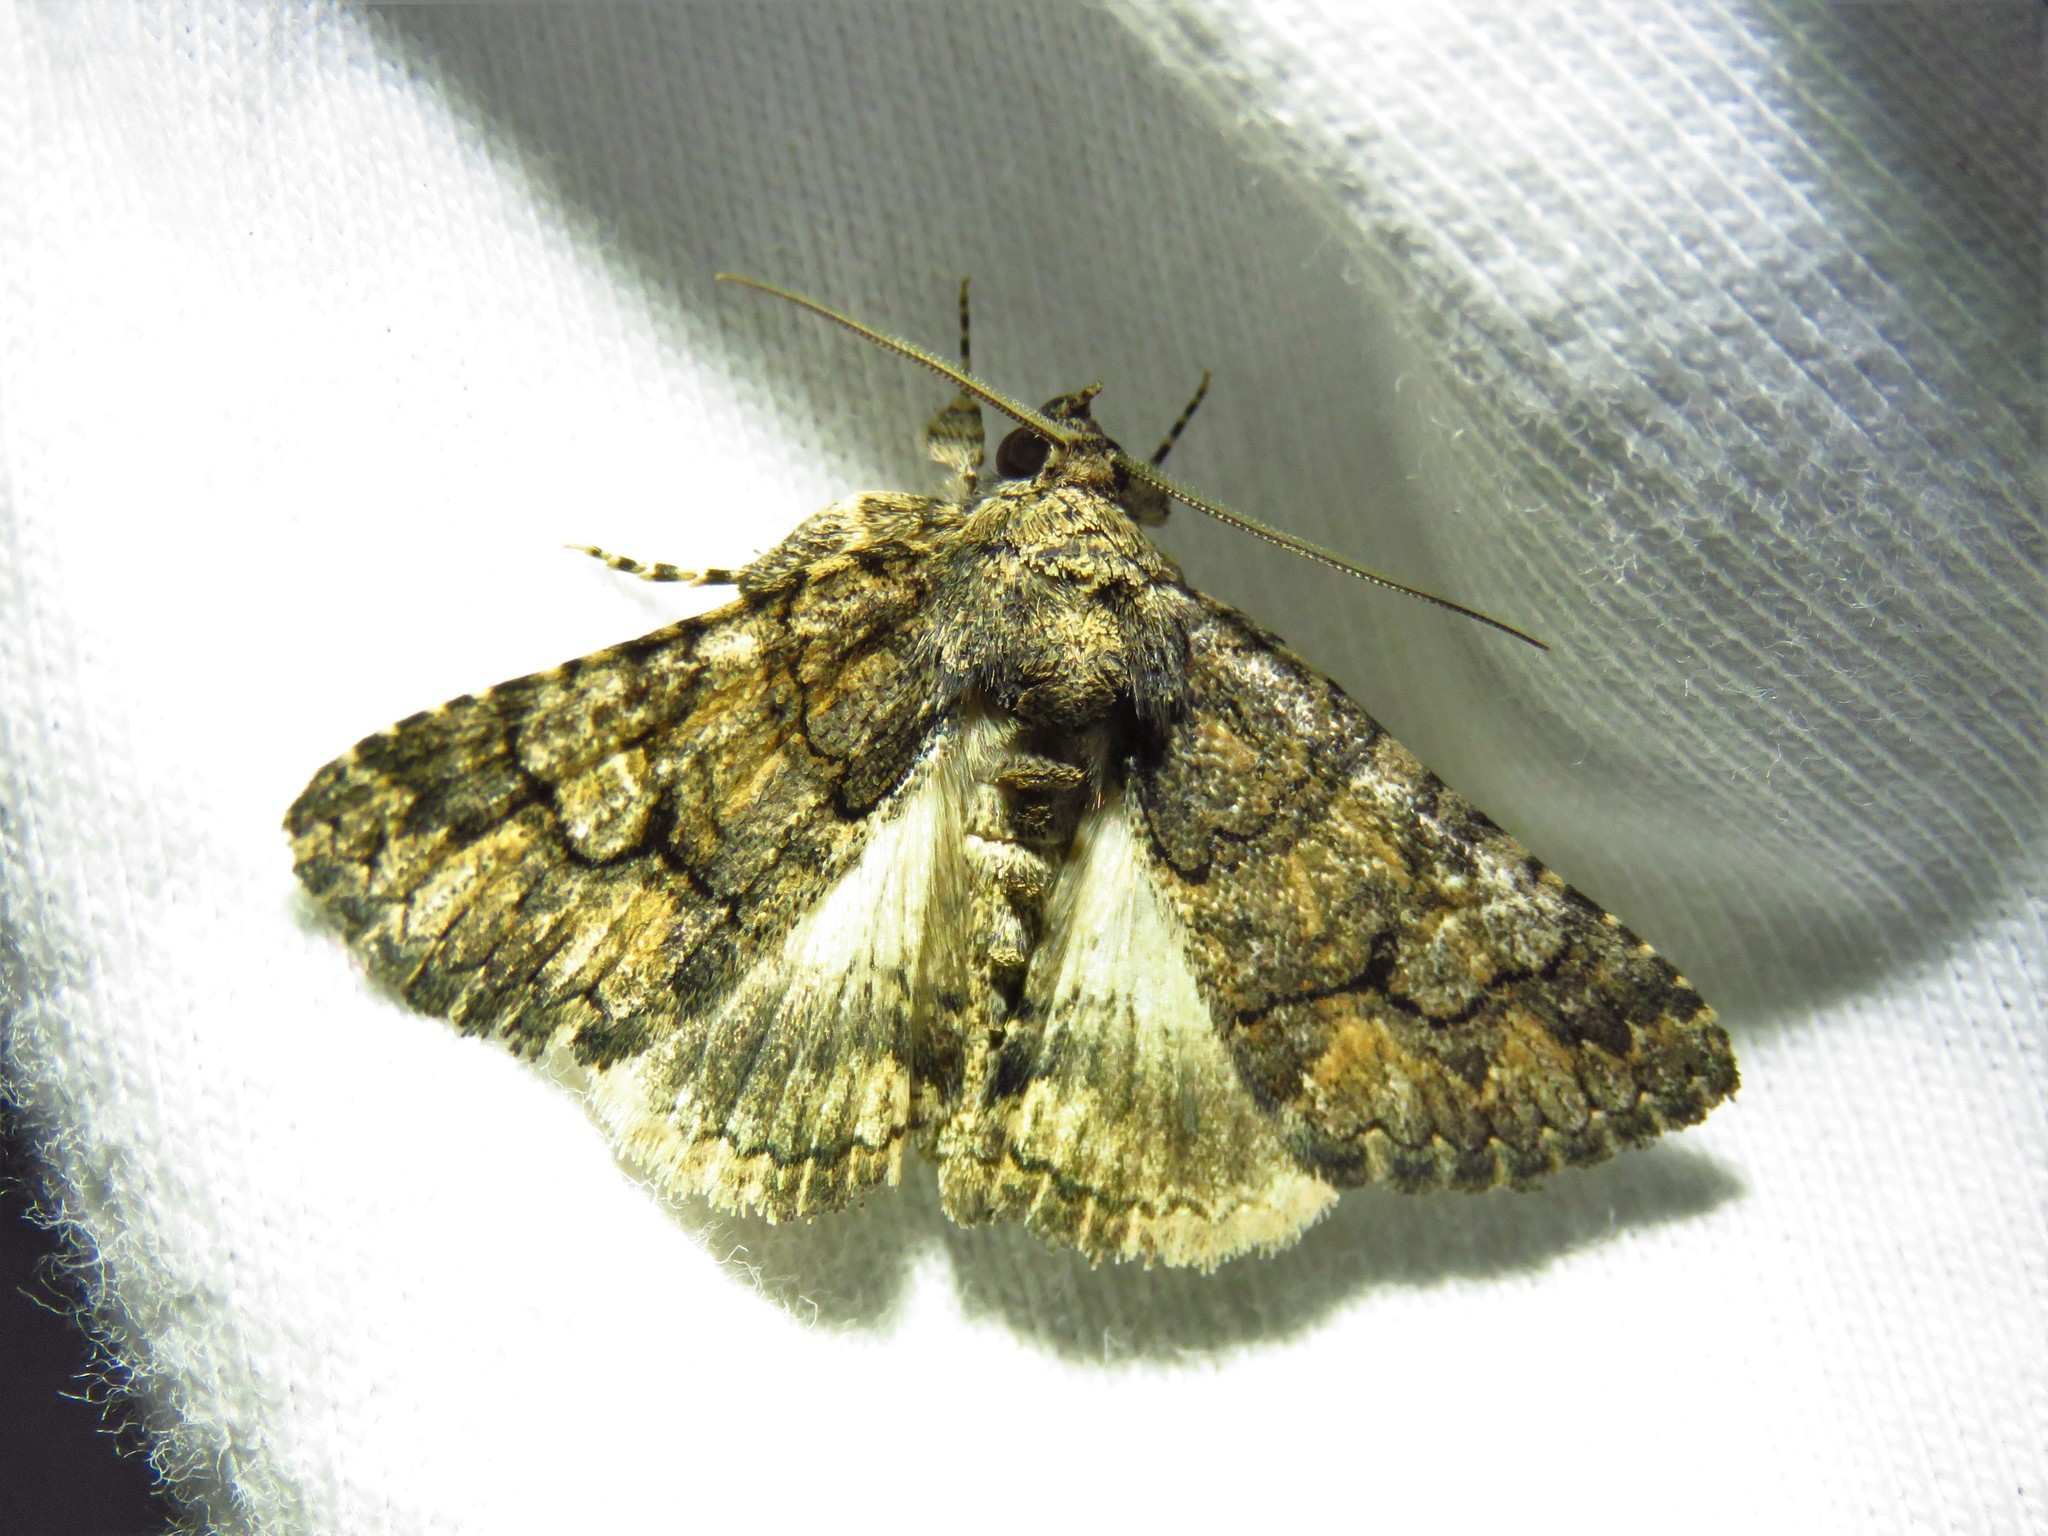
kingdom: Animalia
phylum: Arthropoda
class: Insecta
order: Lepidoptera
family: Erebidae
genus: Elousa
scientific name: Elousa mima
